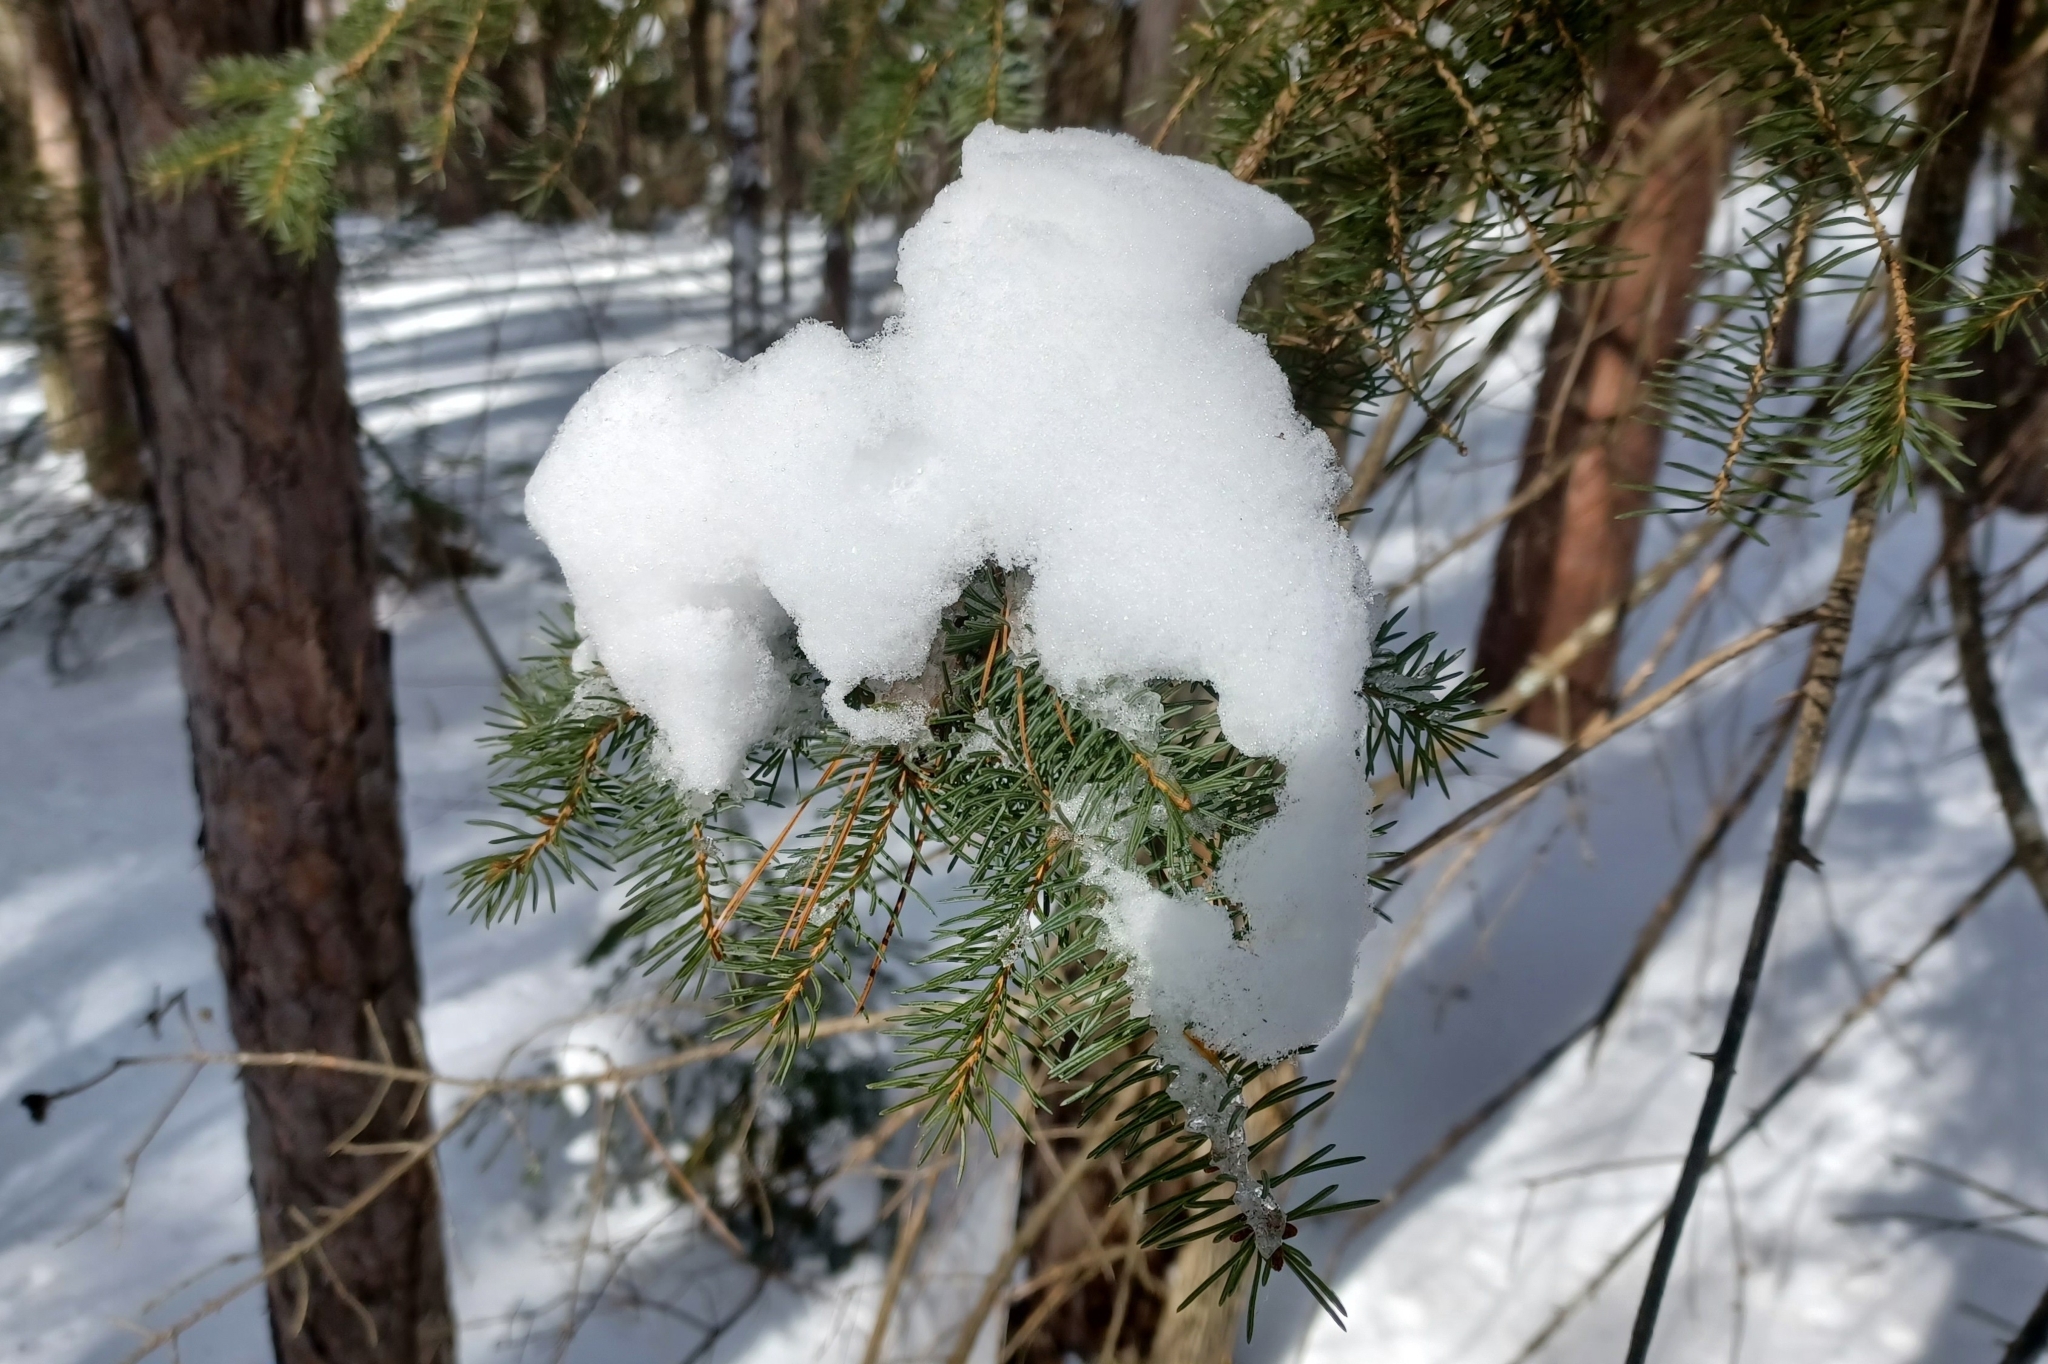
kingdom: Plantae
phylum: Tracheophyta
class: Pinopsida
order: Pinales
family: Pinaceae
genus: Picea
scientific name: Picea glauca
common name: White spruce
